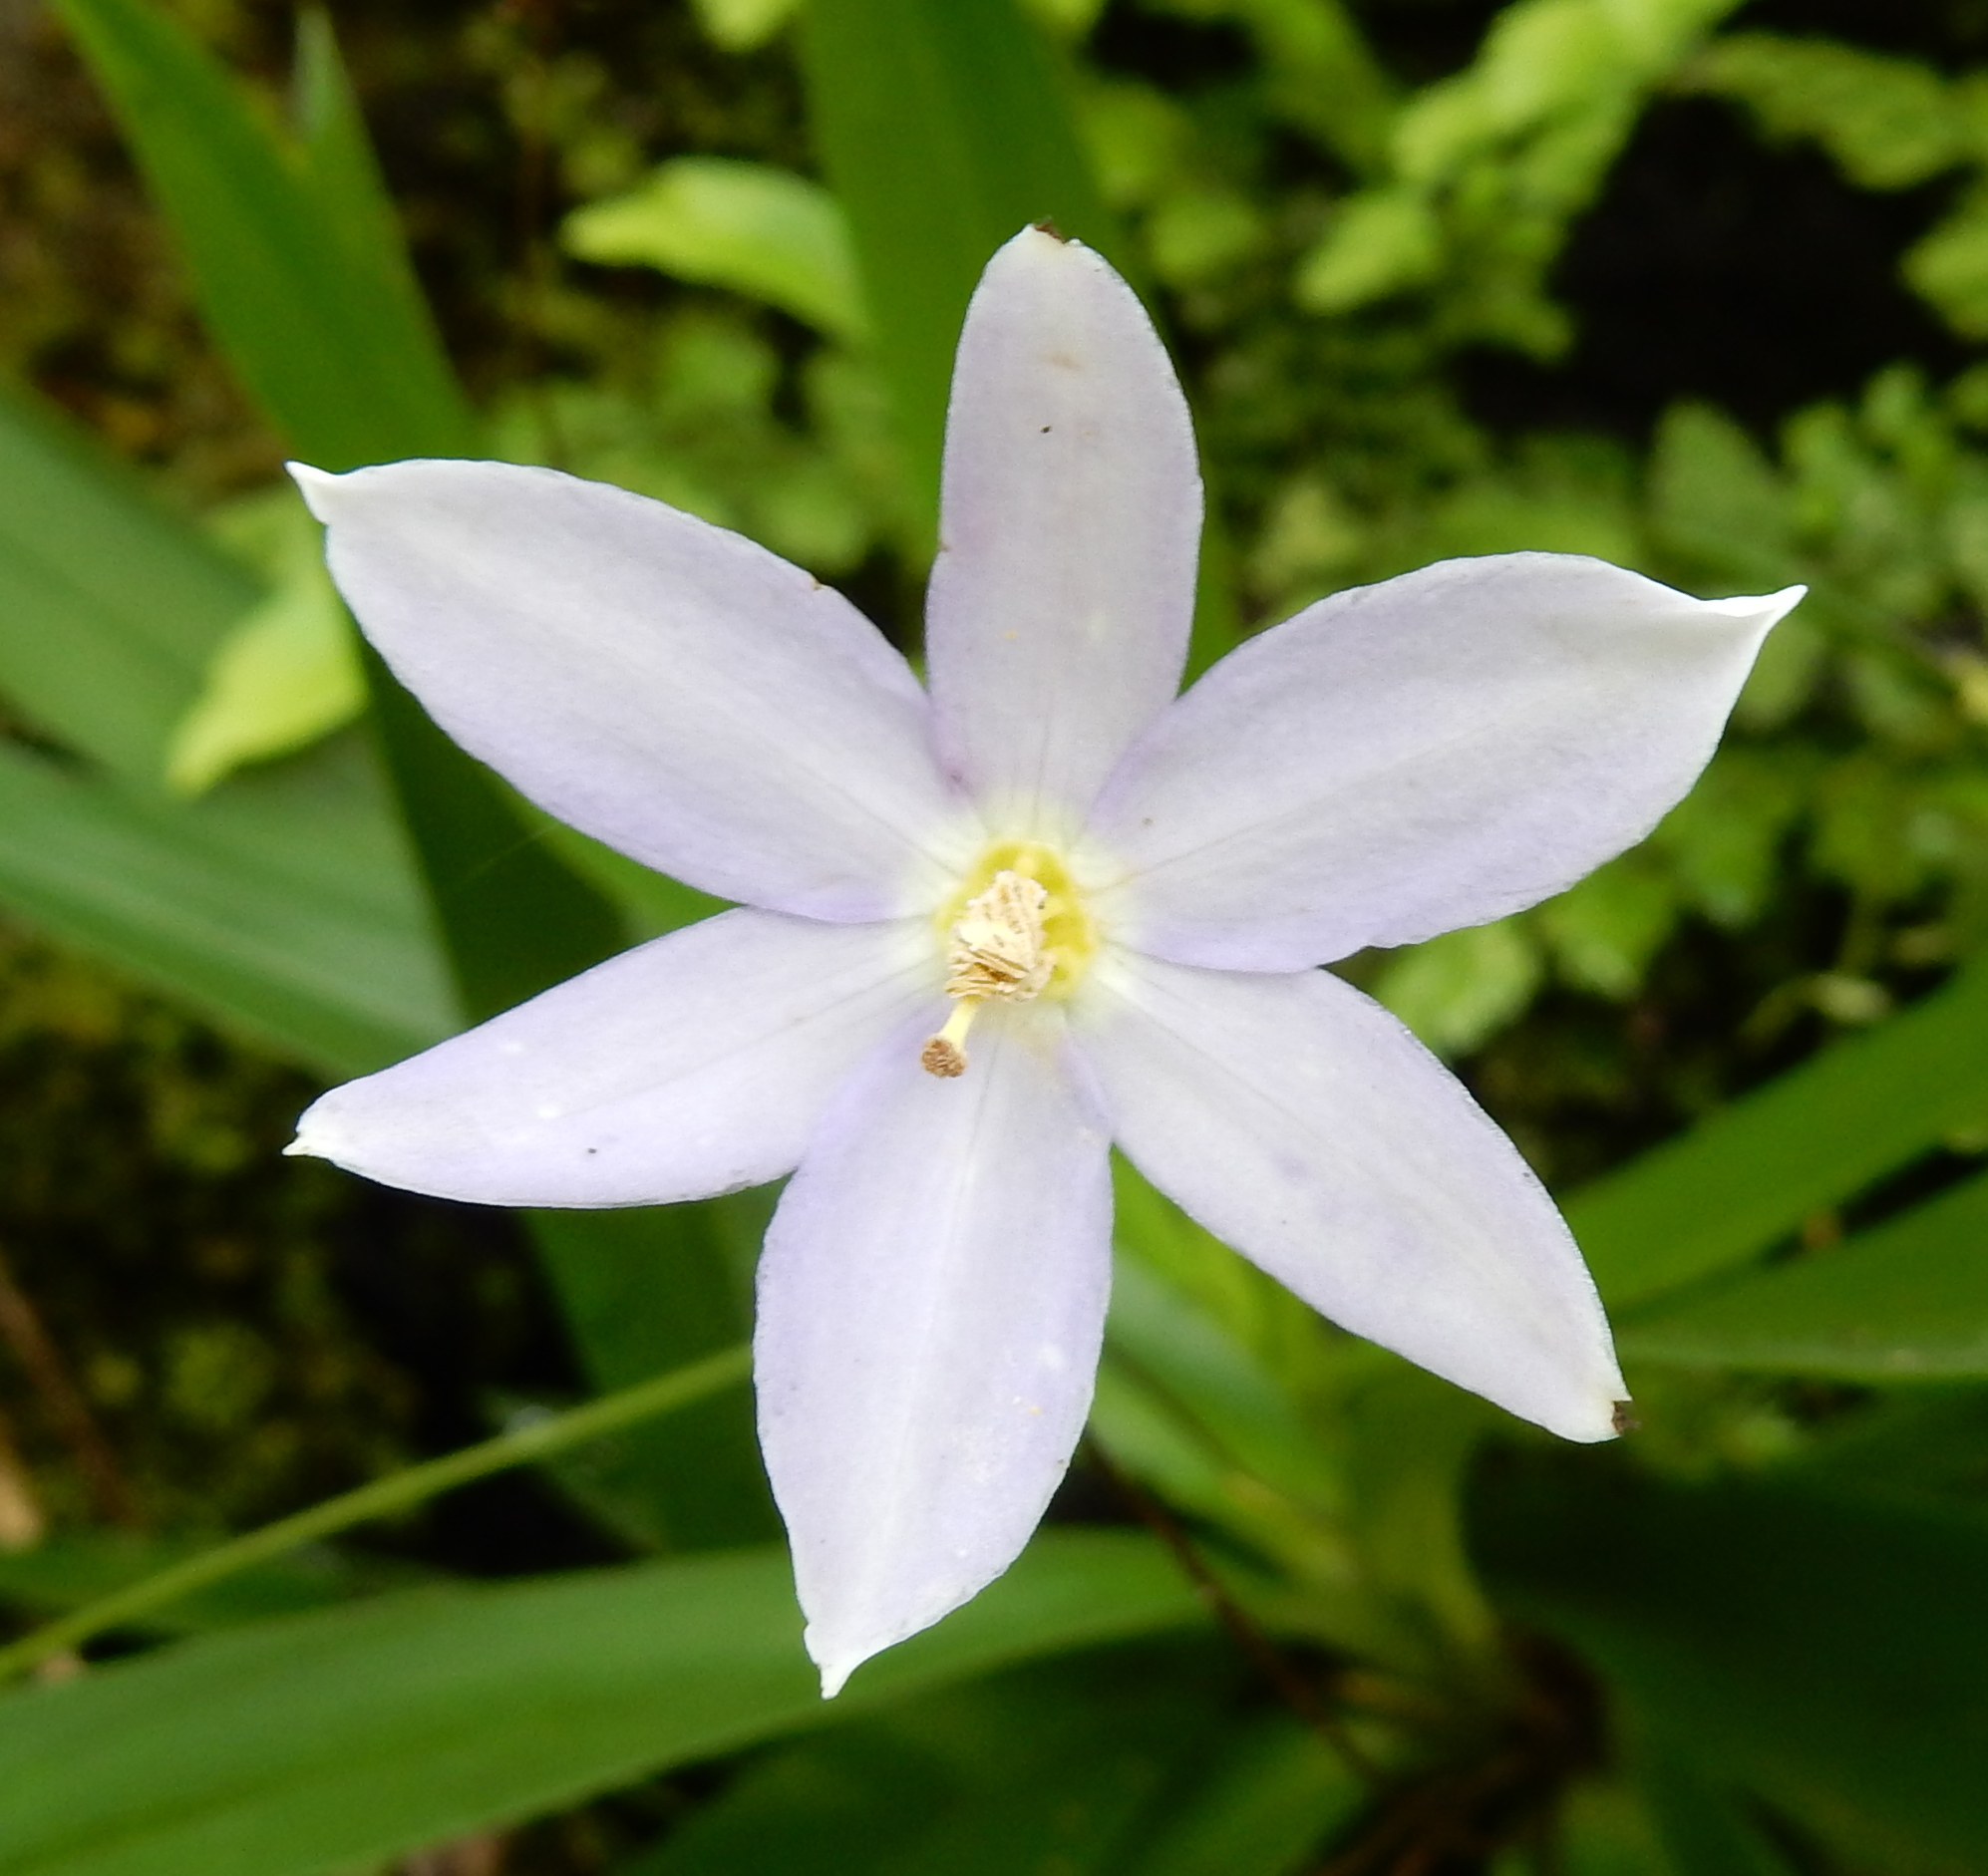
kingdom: Plantae
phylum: Tracheophyta
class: Liliopsida
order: Pandanales
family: Velloziaceae
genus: Xerophyta
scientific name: Xerophyta elegans
